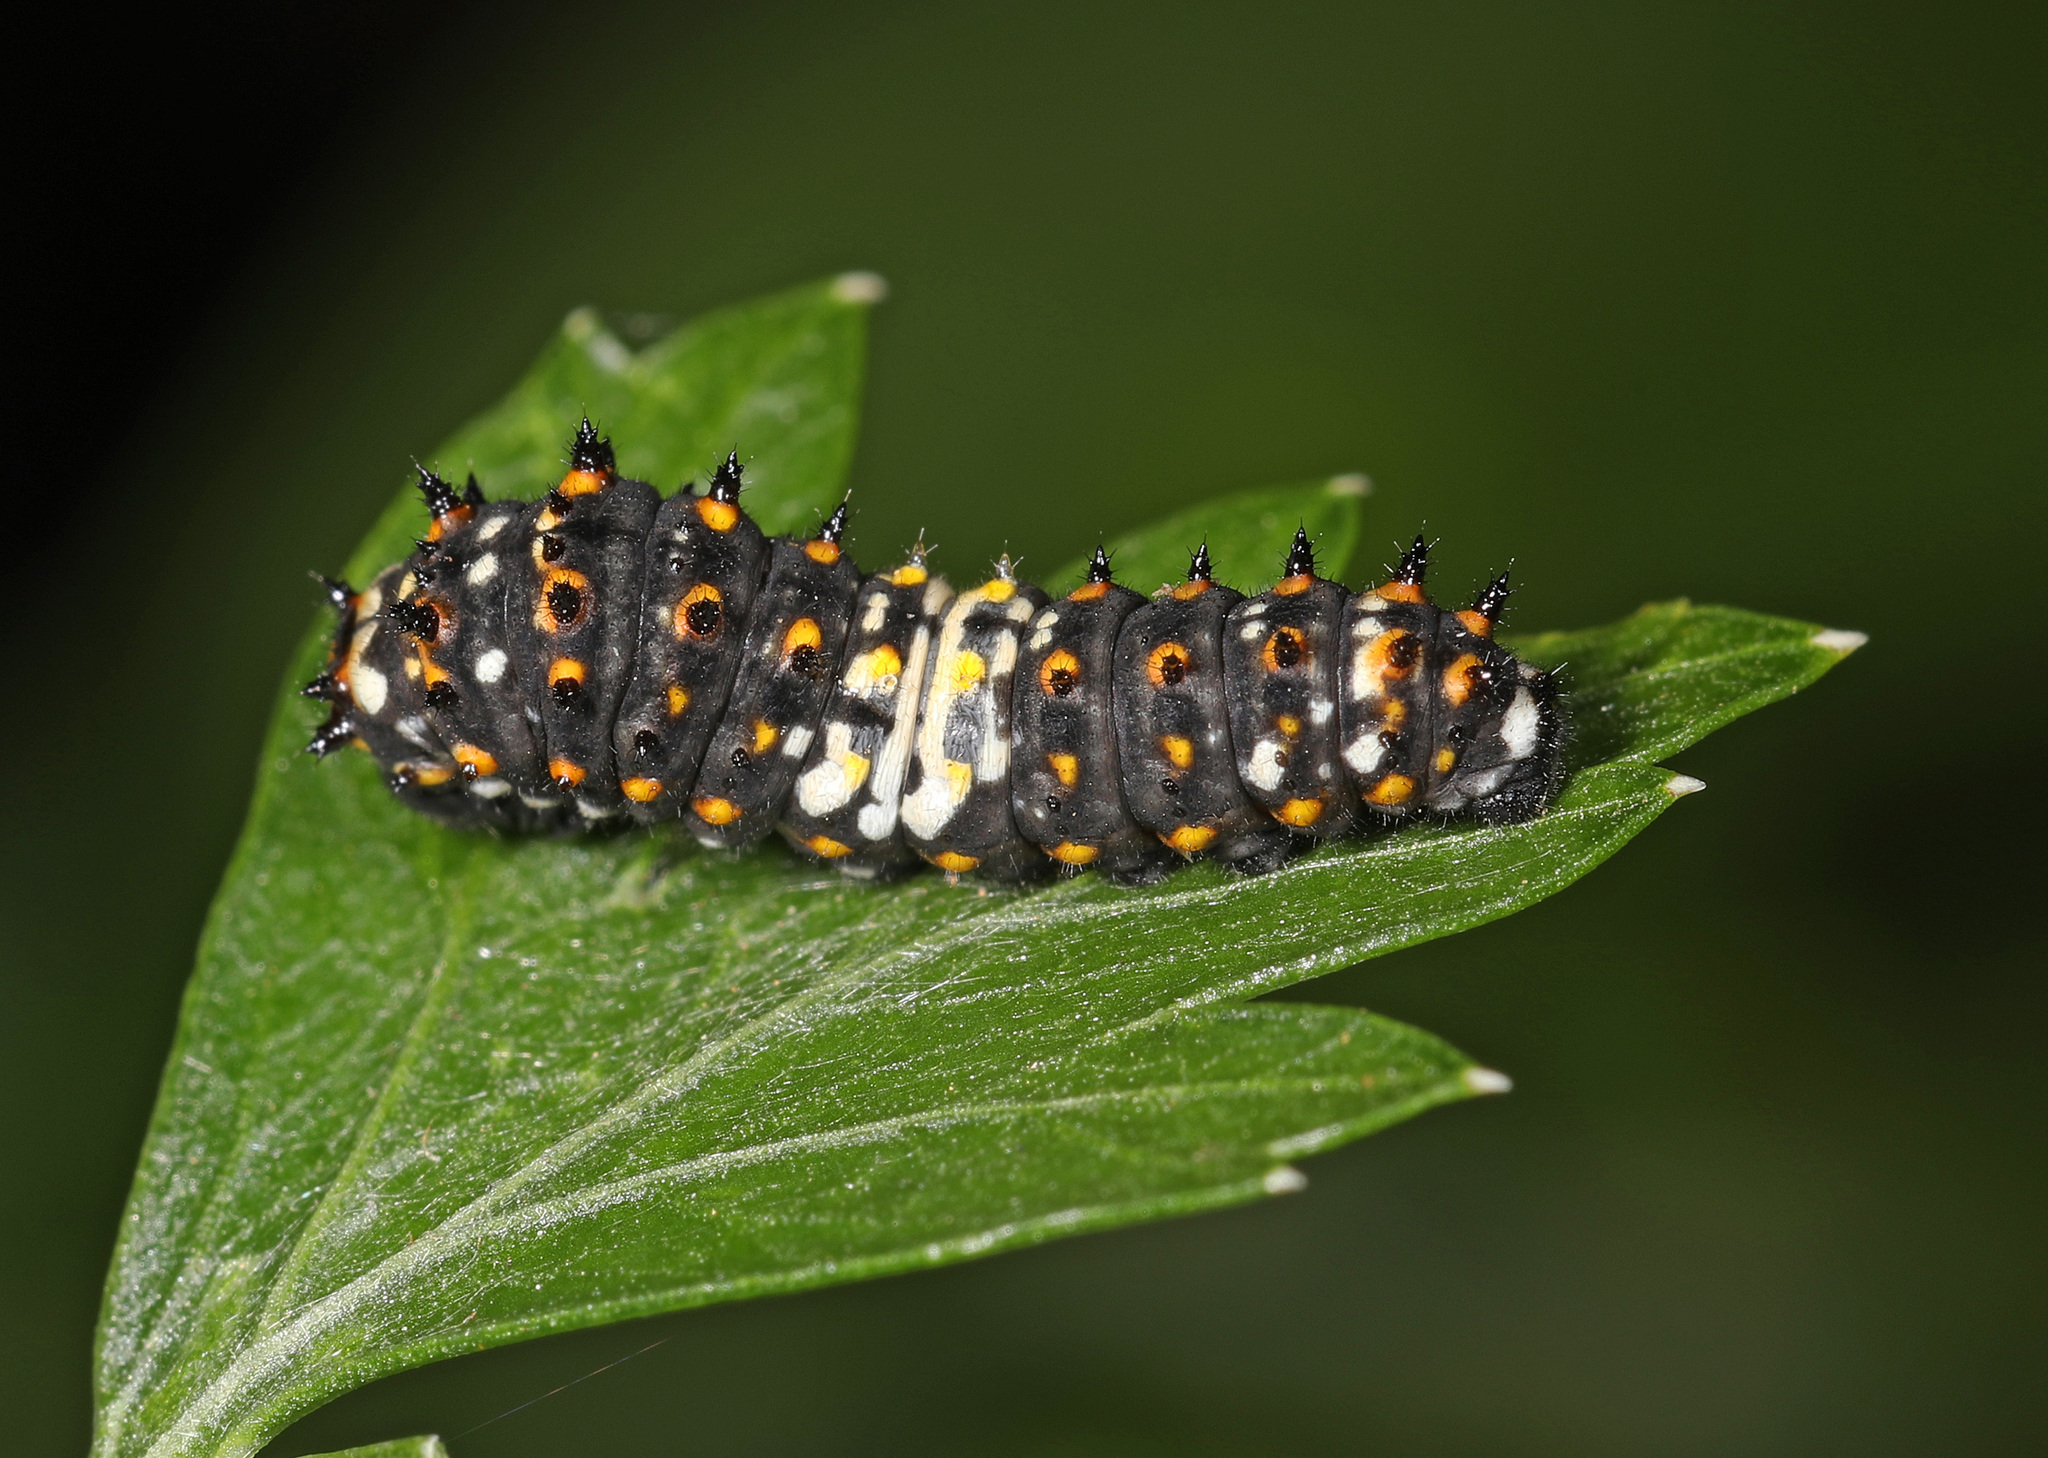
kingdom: Animalia
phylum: Arthropoda
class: Insecta
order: Lepidoptera
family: Papilionidae
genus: Papilio
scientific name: Papilio polyxenes
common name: Black swallowtail
